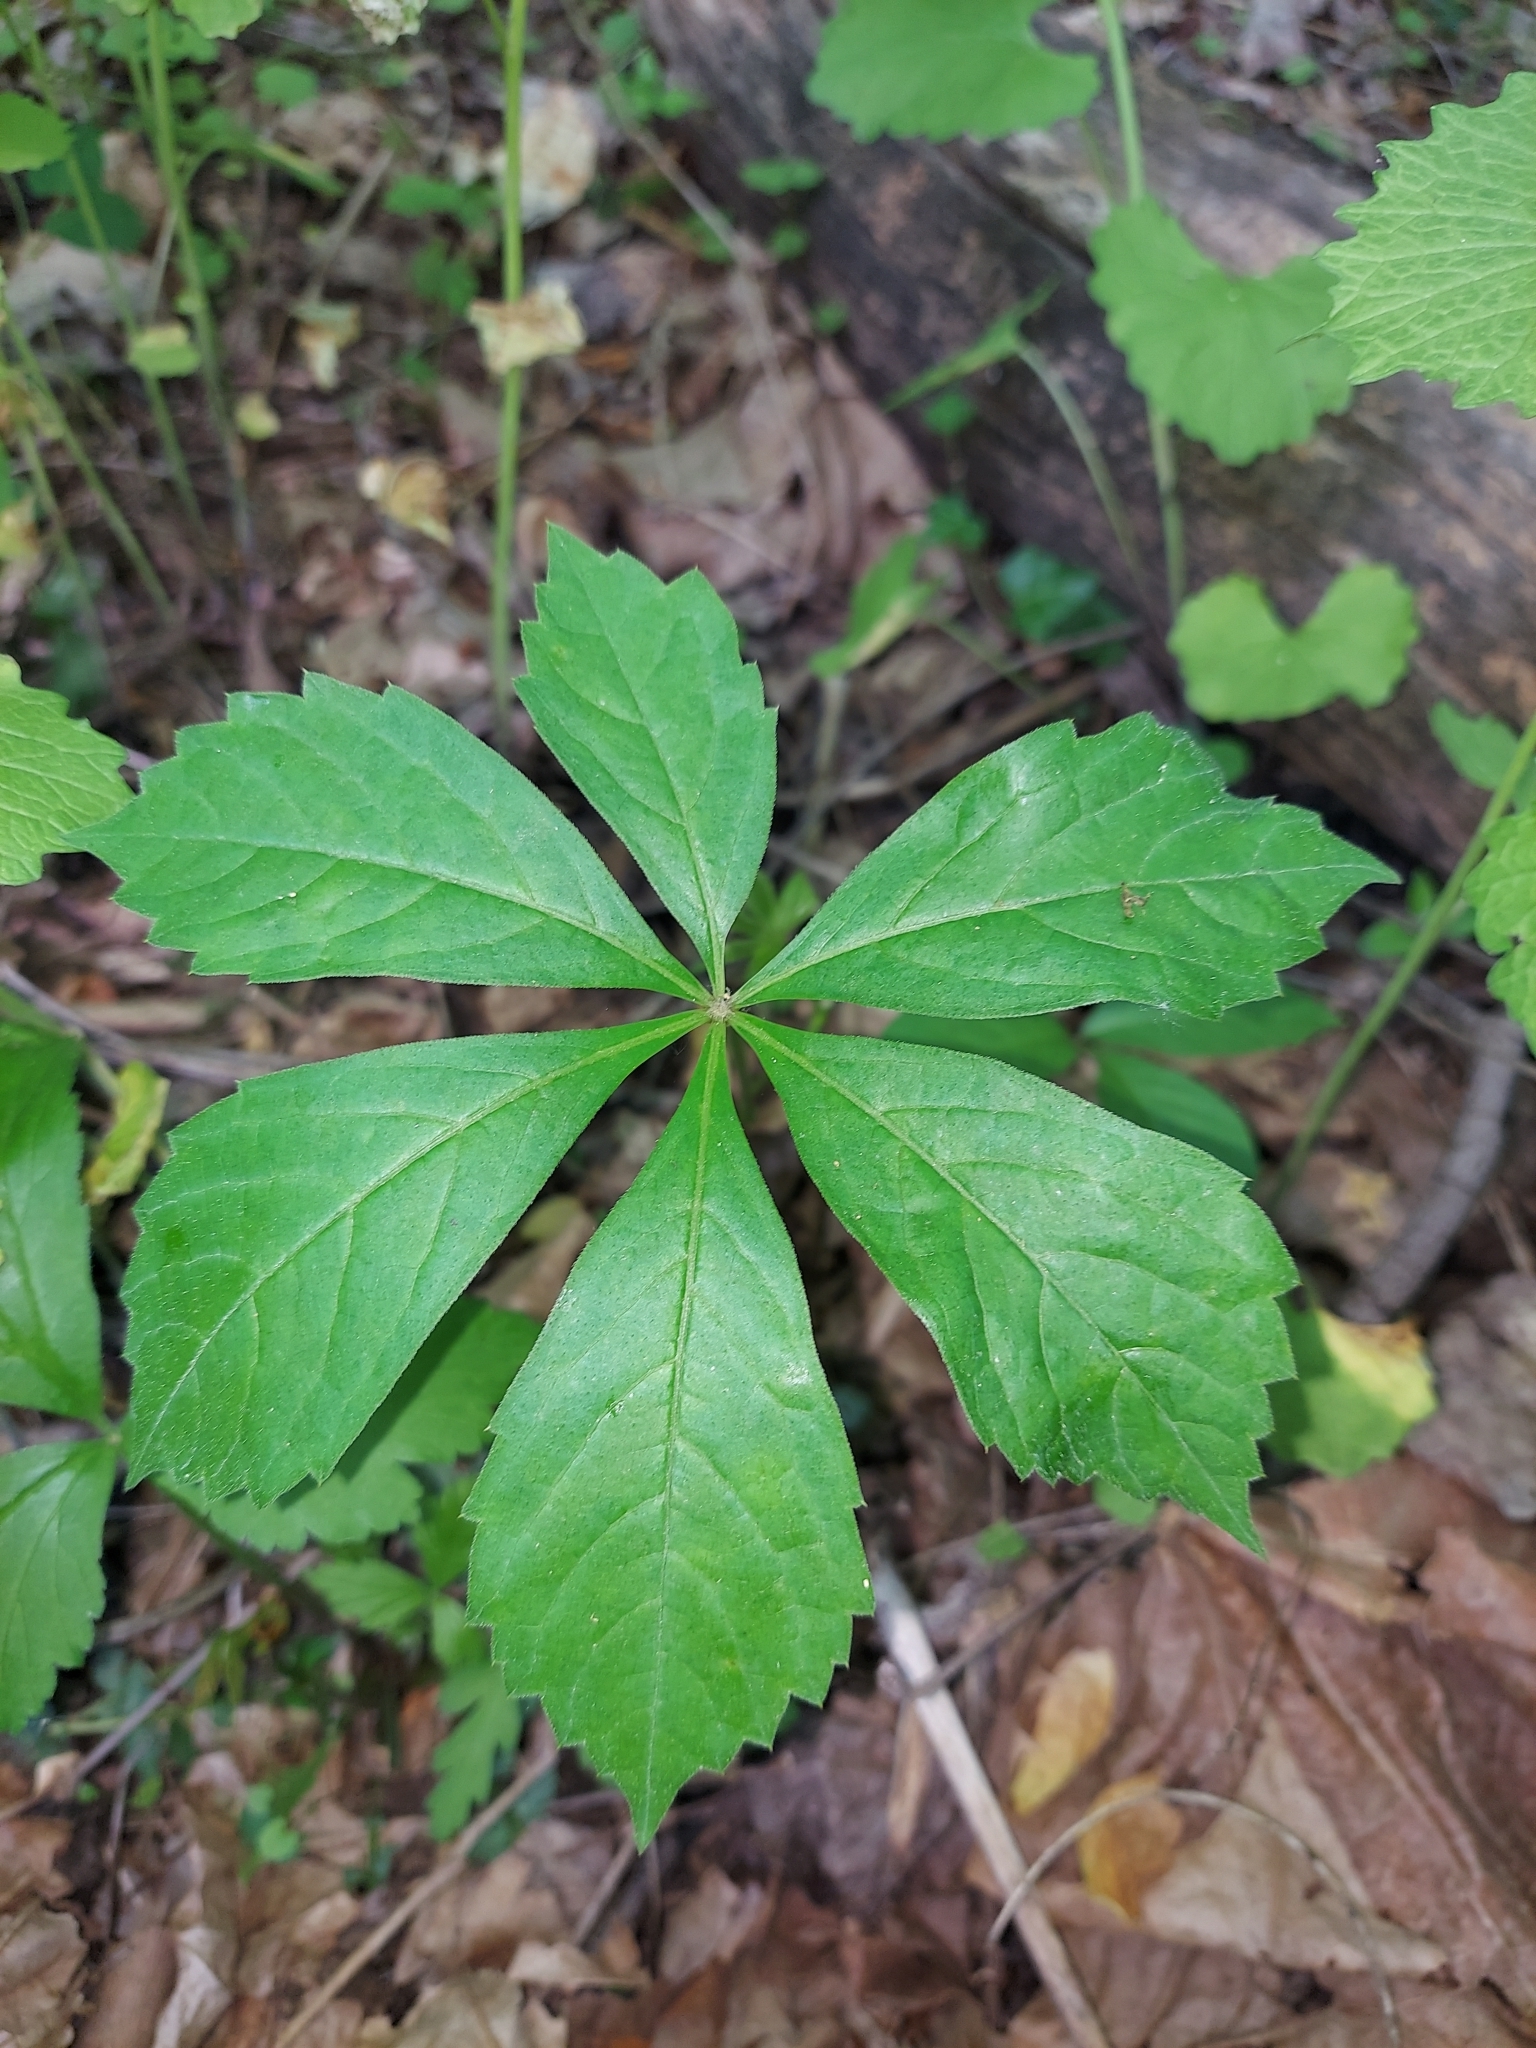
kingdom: Plantae
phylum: Tracheophyta
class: Magnoliopsida
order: Vitales
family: Vitaceae
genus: Parthenocissus
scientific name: Parthenocissus quinquefolia
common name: Virginia-creeper
